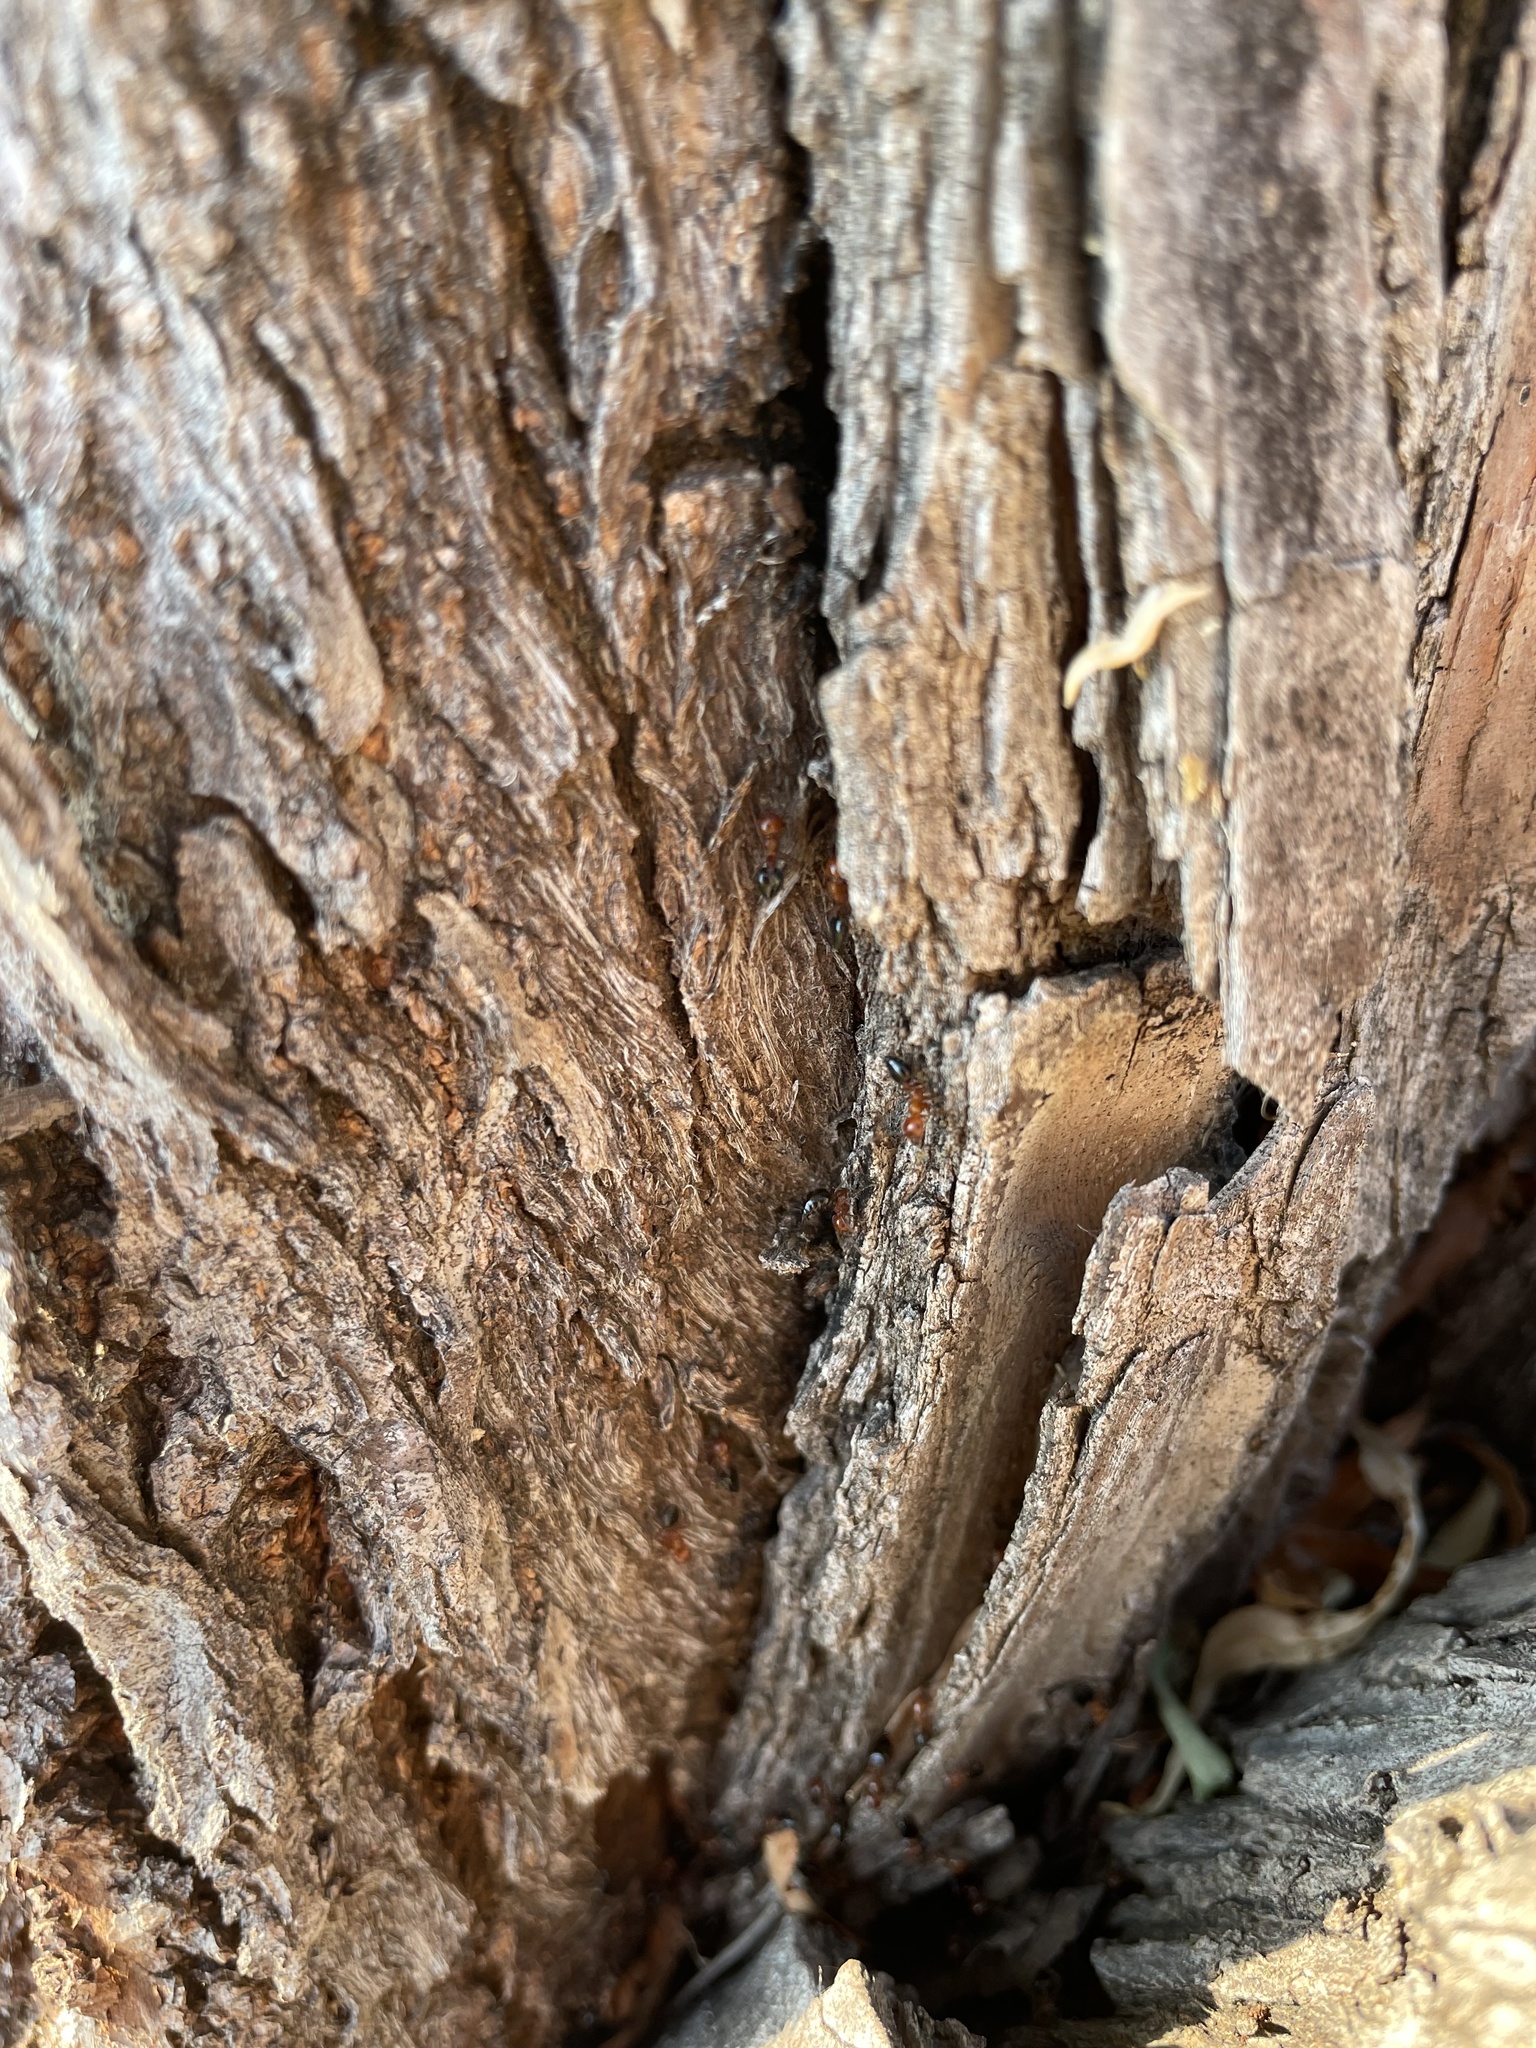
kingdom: Animalia
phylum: Arthropoda
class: Insecta
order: Hymenoptera
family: Formicidae
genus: Crematogaster
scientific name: Crematogaster laeviuscula
